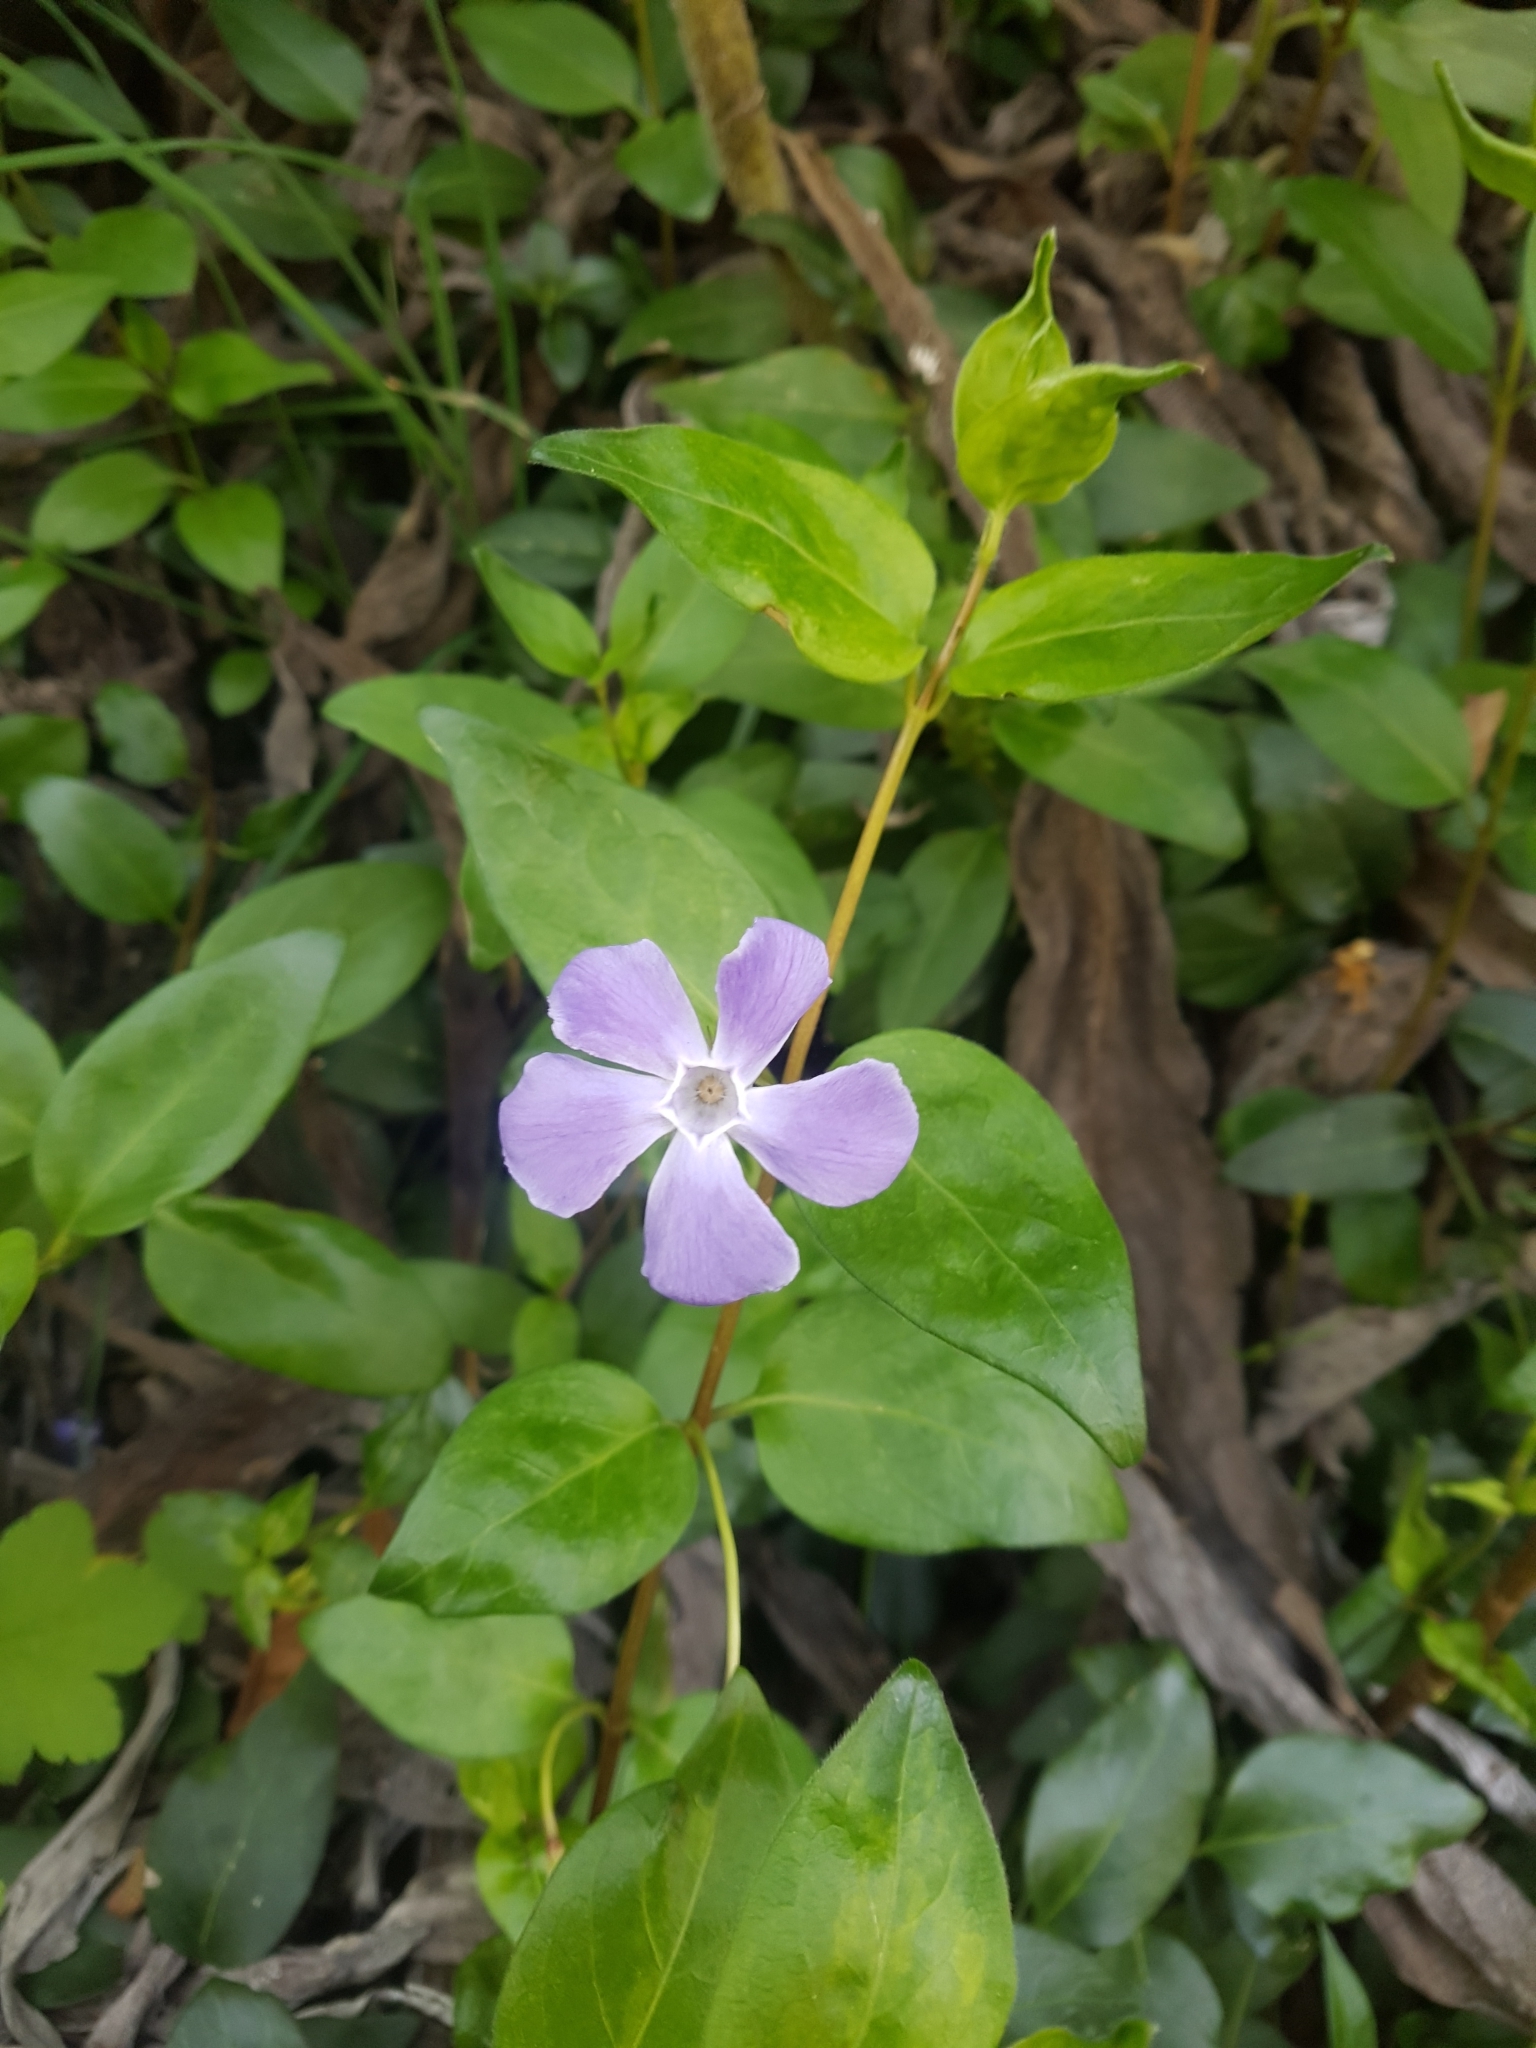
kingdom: Plantae
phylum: Tracheophyta
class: Magnoliopsida
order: Gentianales
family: Apocynaceae
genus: Vinca
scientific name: Vinca major
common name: Greater periwinkle
